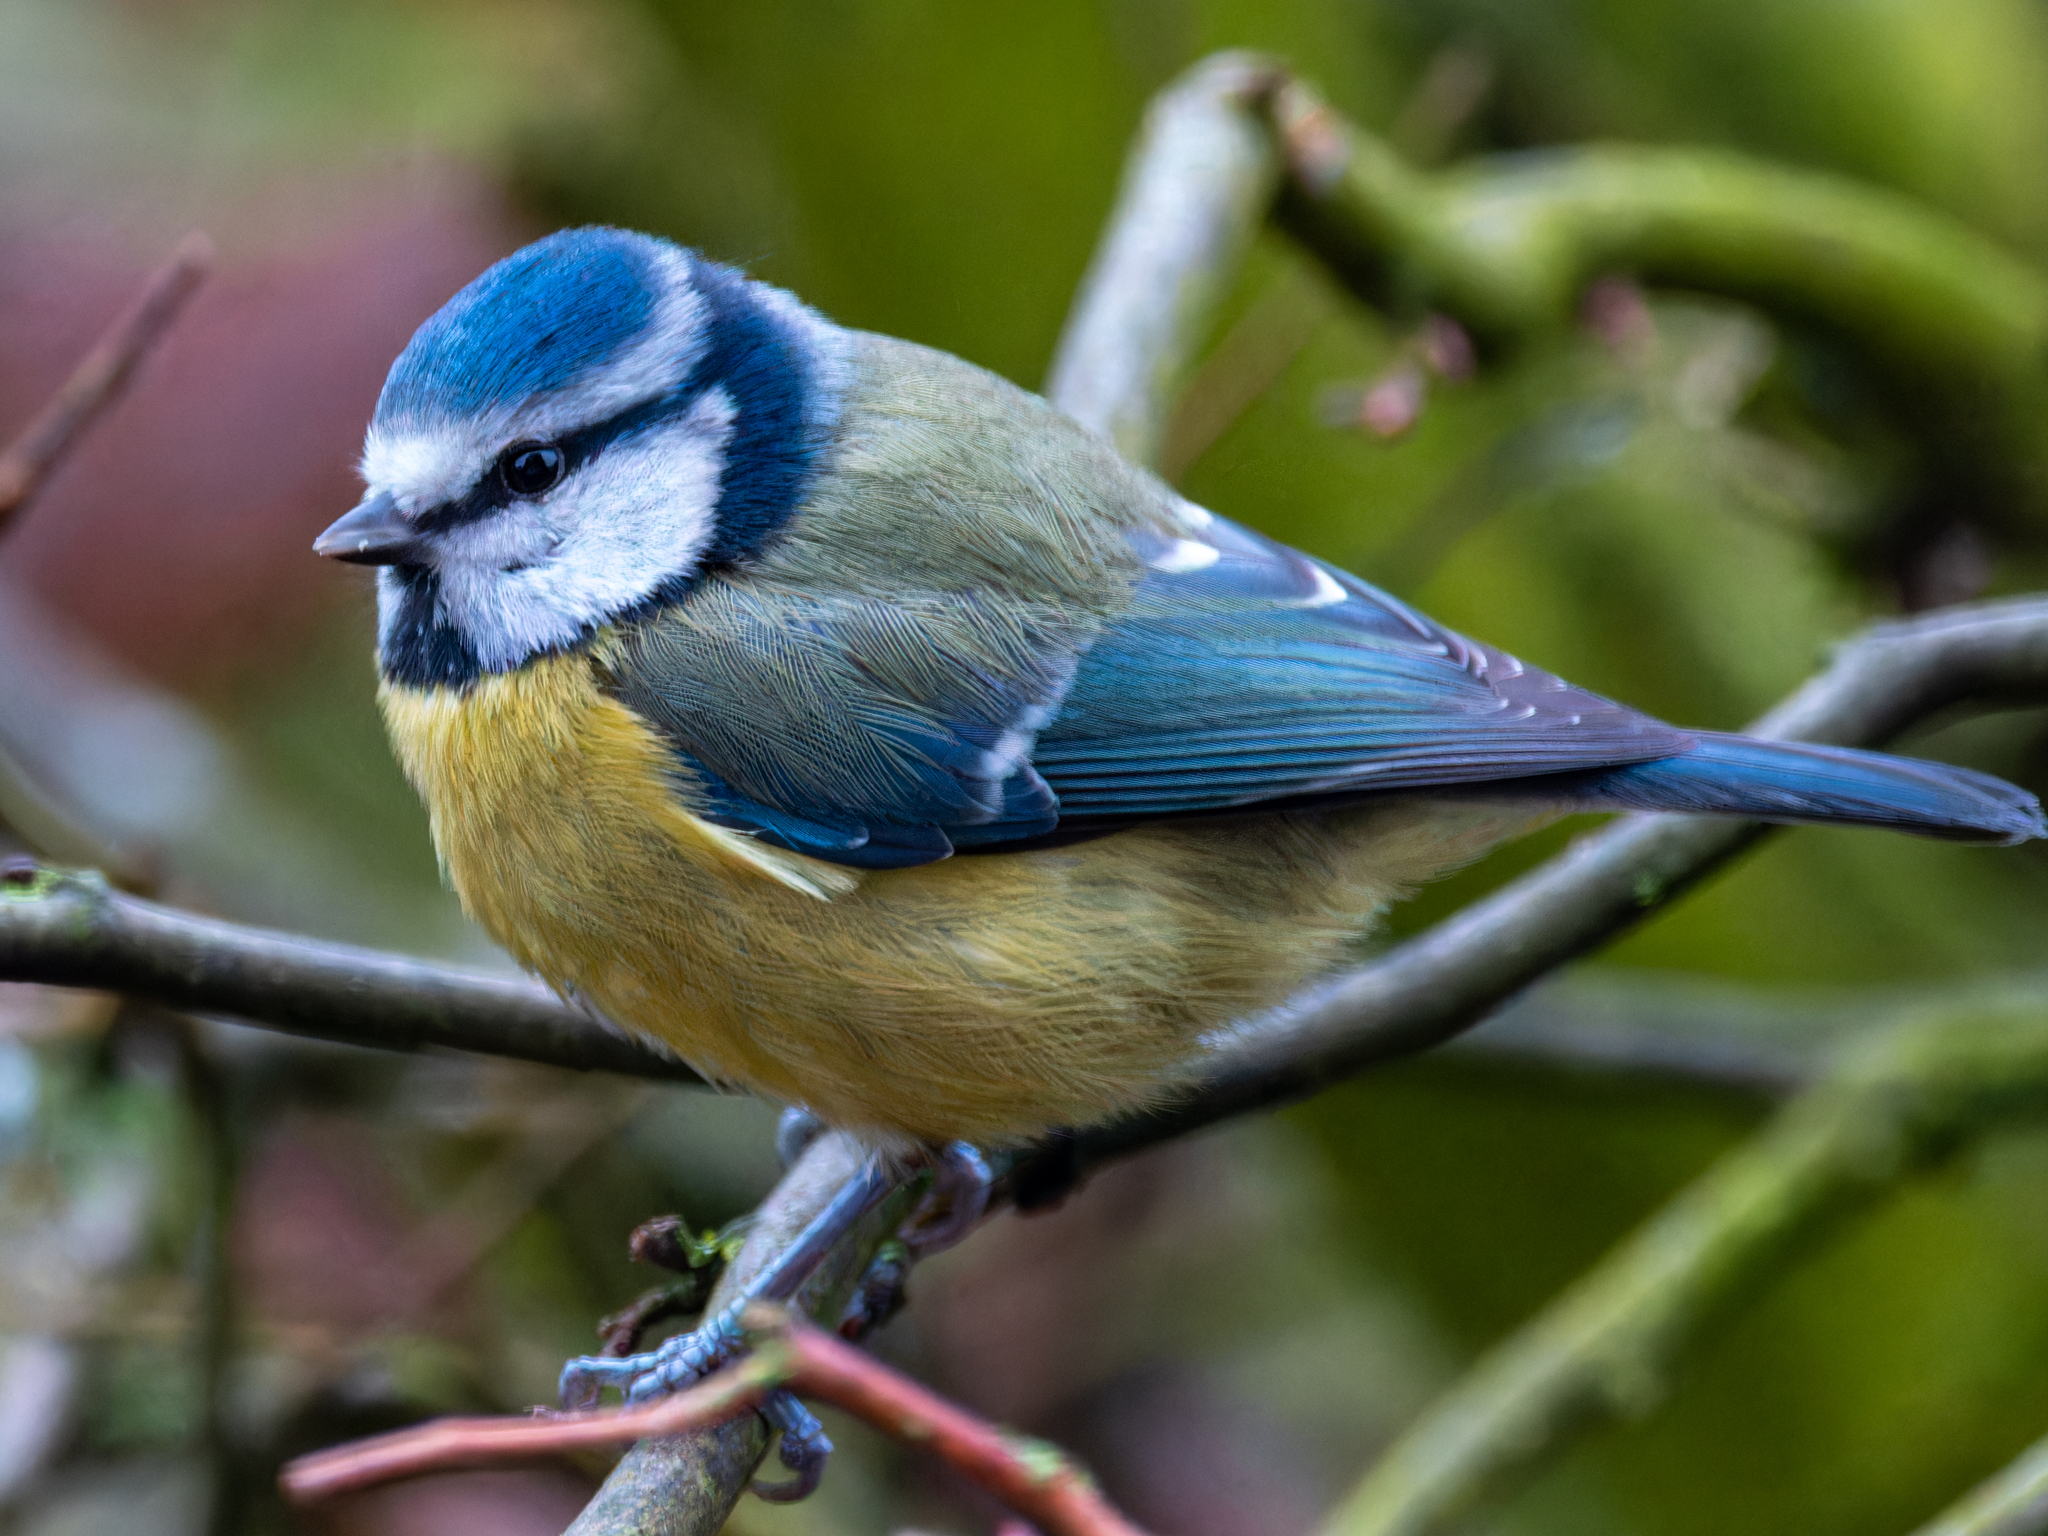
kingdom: Animalia
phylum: Chordata
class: Aves
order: Passeriformes
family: Paridae
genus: Cyanistes
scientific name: Cyanistes caeruleus
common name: Eurasian blue tit
